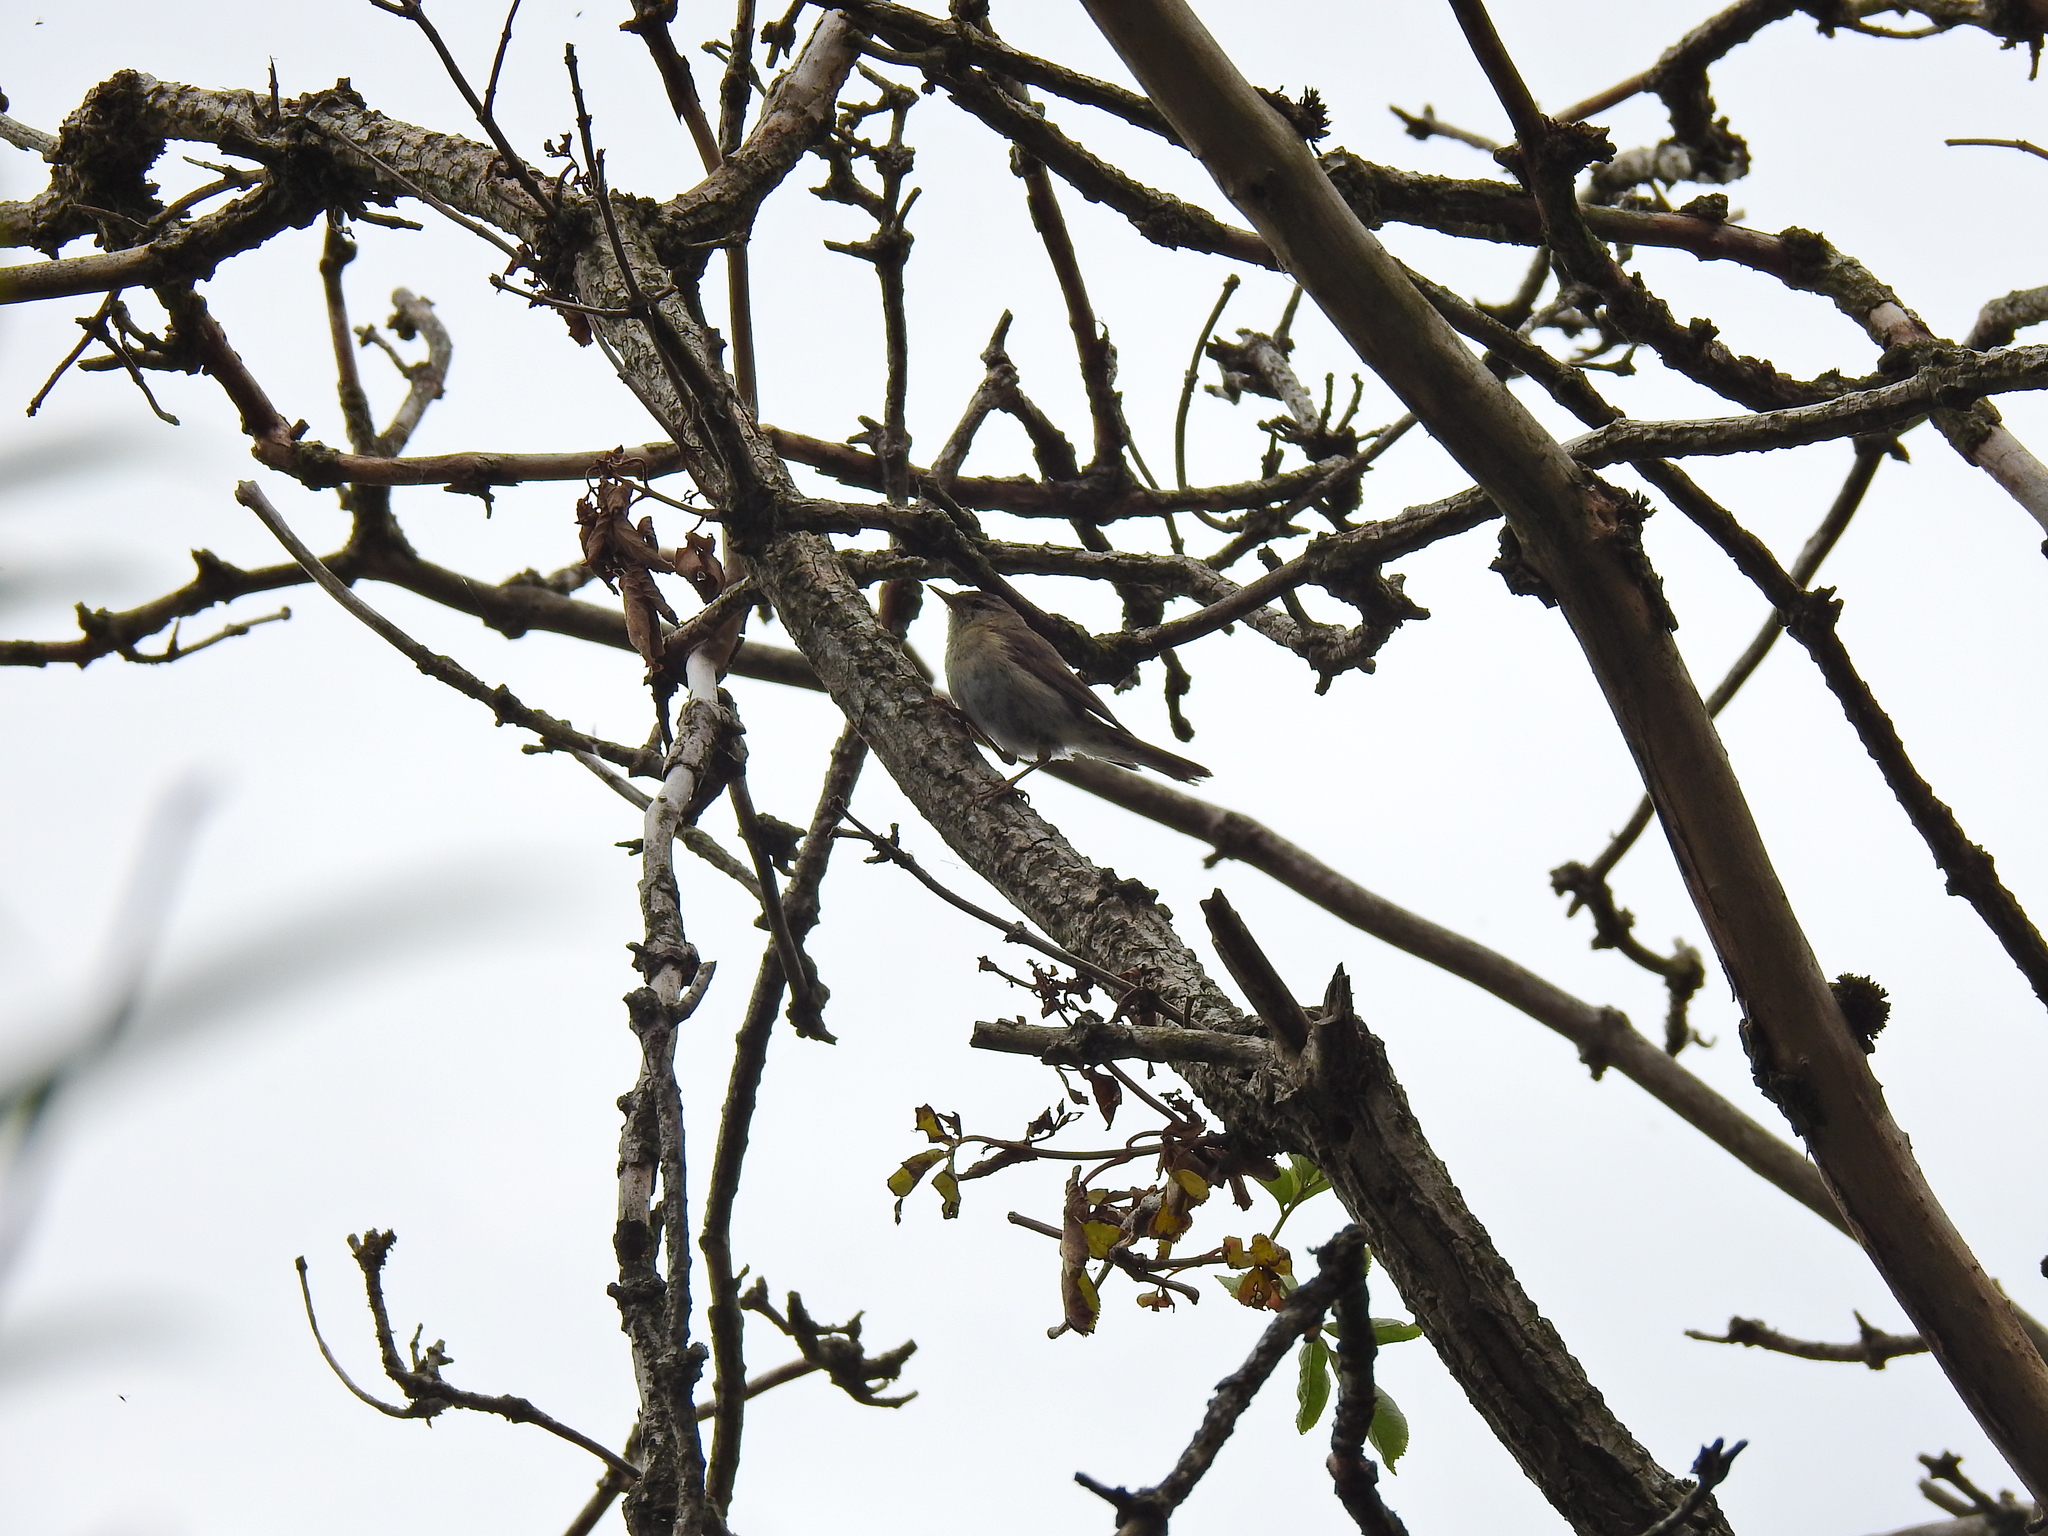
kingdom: Animalia
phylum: Chordata
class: Aves
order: Passeriformes
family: Phylloscopidae
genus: Phylloscopus
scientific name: Phylloscopus collybita
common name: Common chiffchaff
